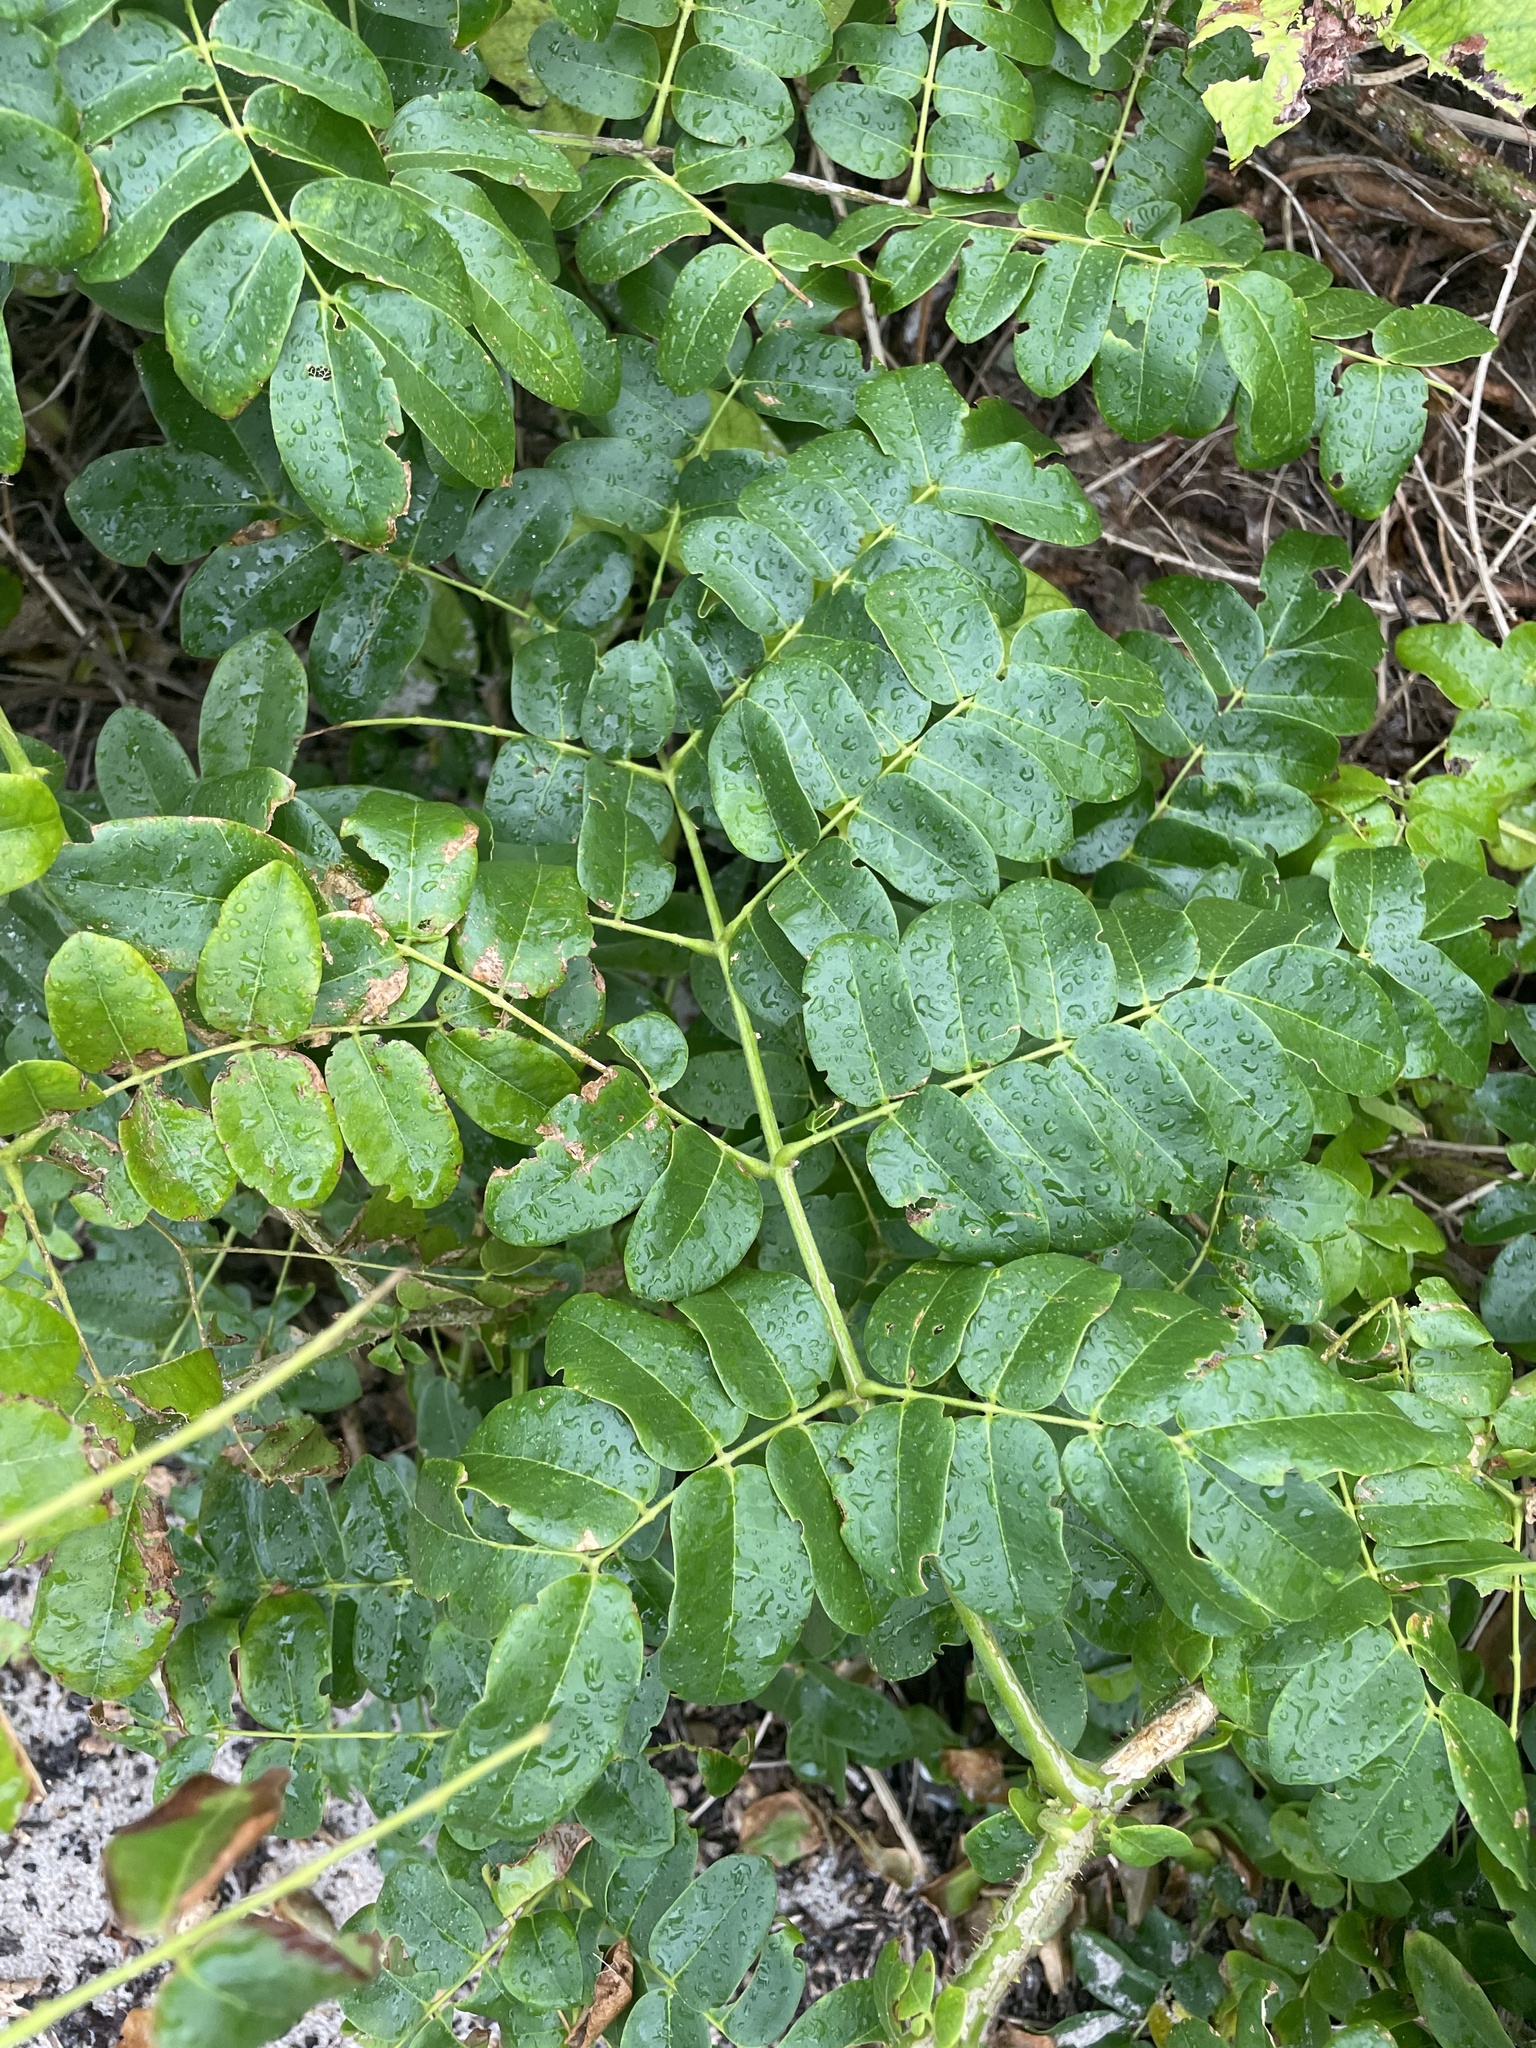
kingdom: Plantae
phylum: Tracheophyta
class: Magnoliopsida
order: Fabales
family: Fabaceae
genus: Guilandina
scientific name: Guilandina bonduc
